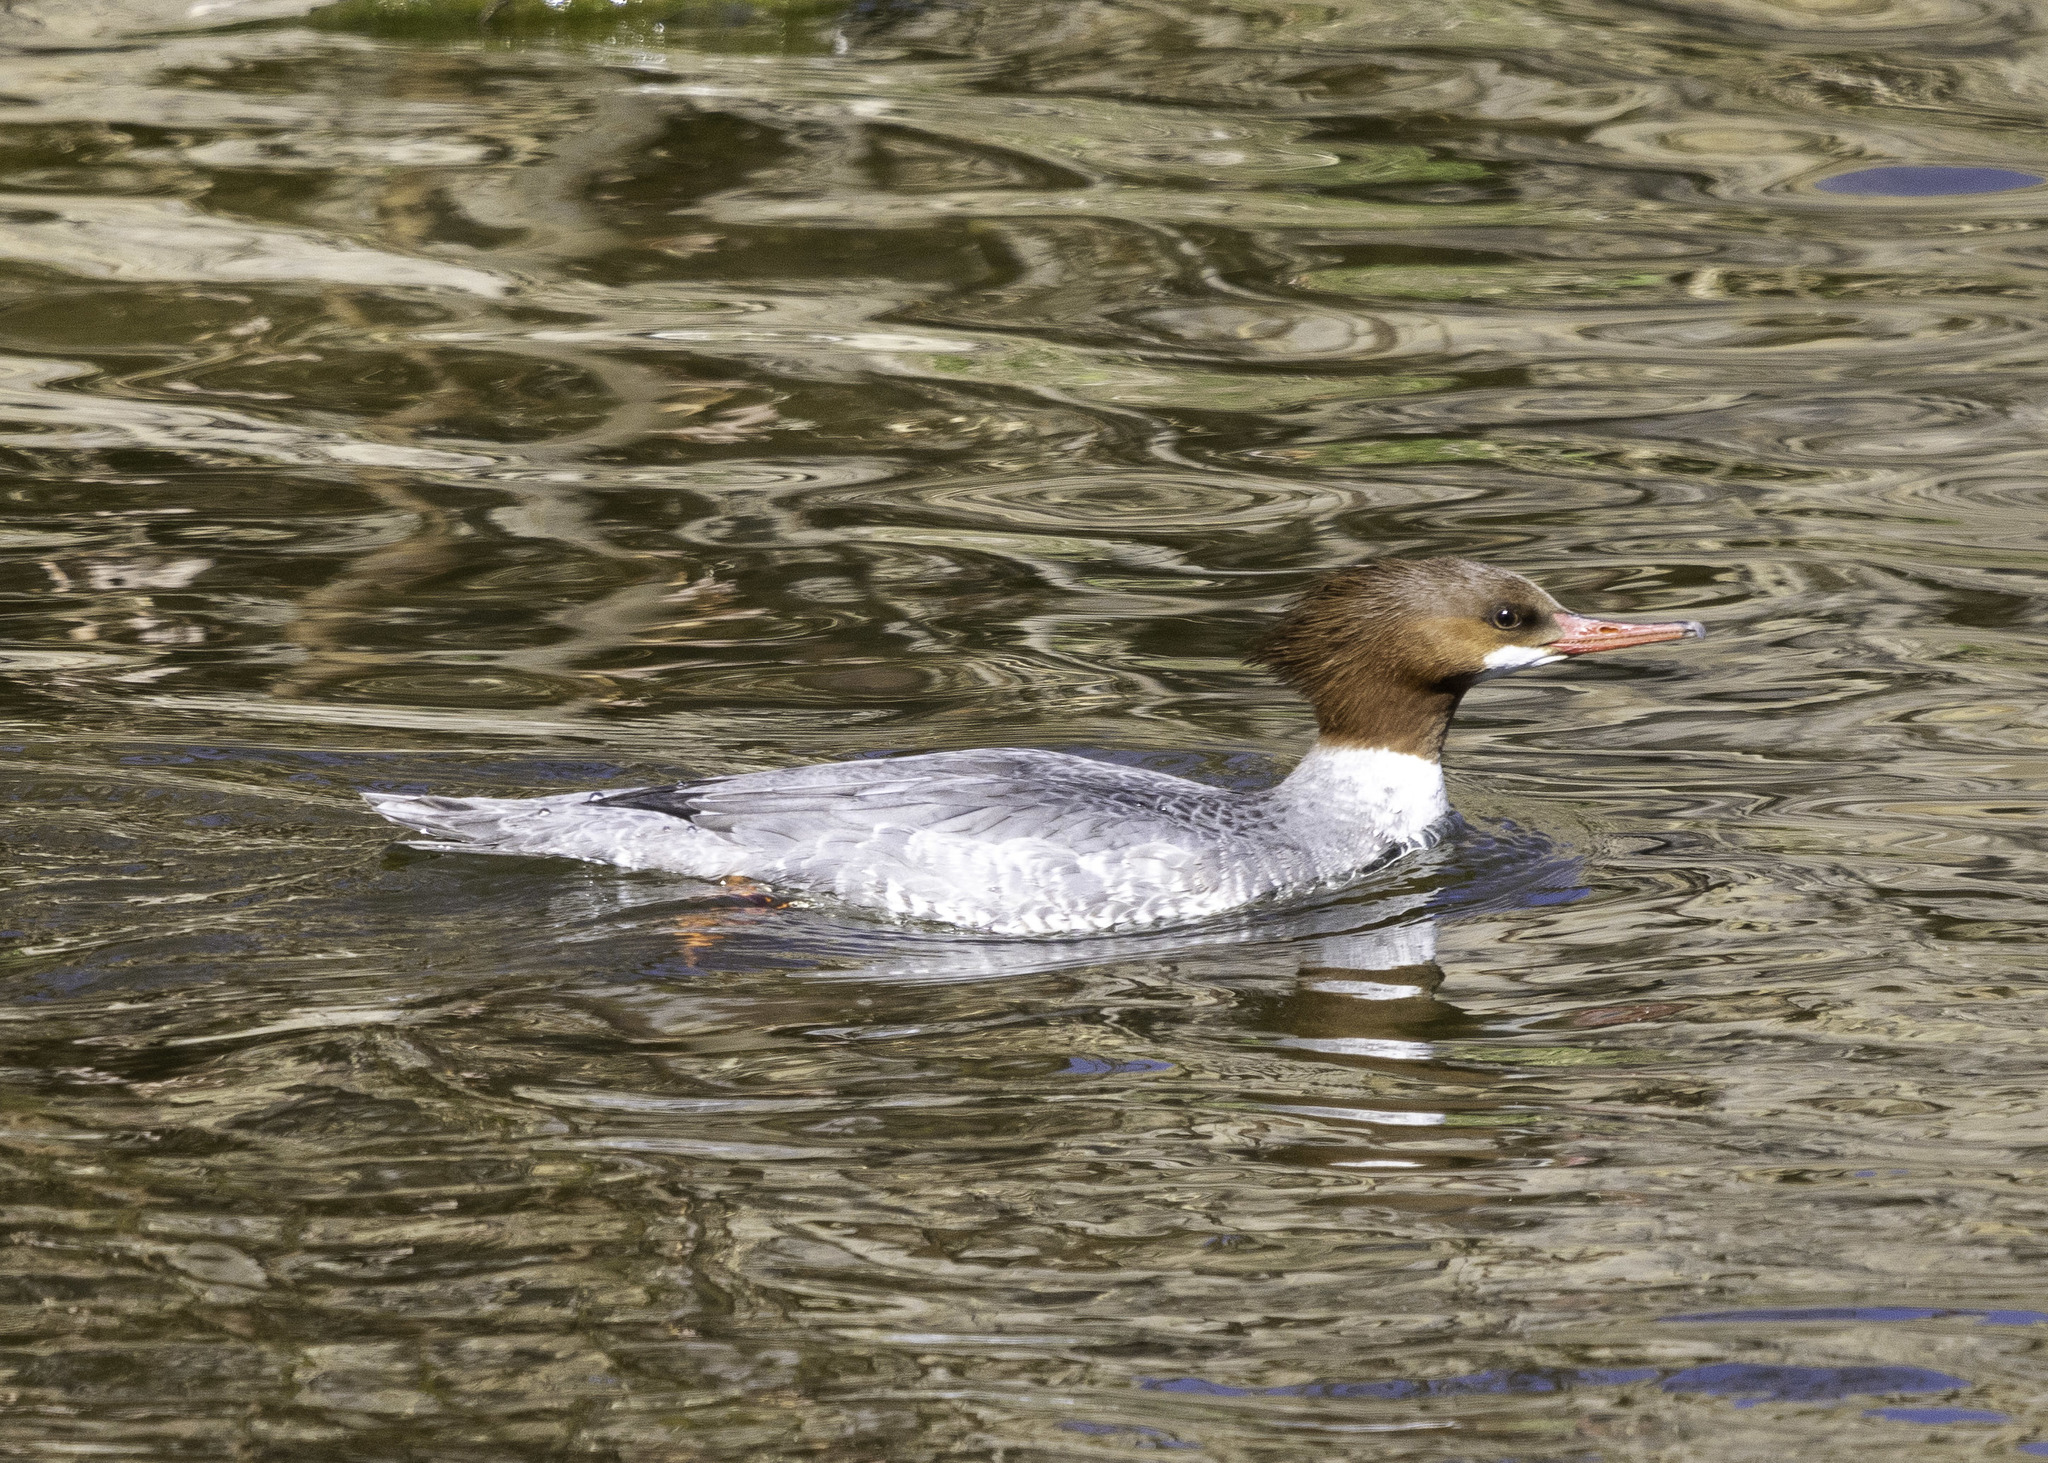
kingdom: Animalia
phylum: Chordata
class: Aves
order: Anseriformes
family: Anatidae
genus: Mergus
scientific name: Mergus merganser
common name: Common merganser
